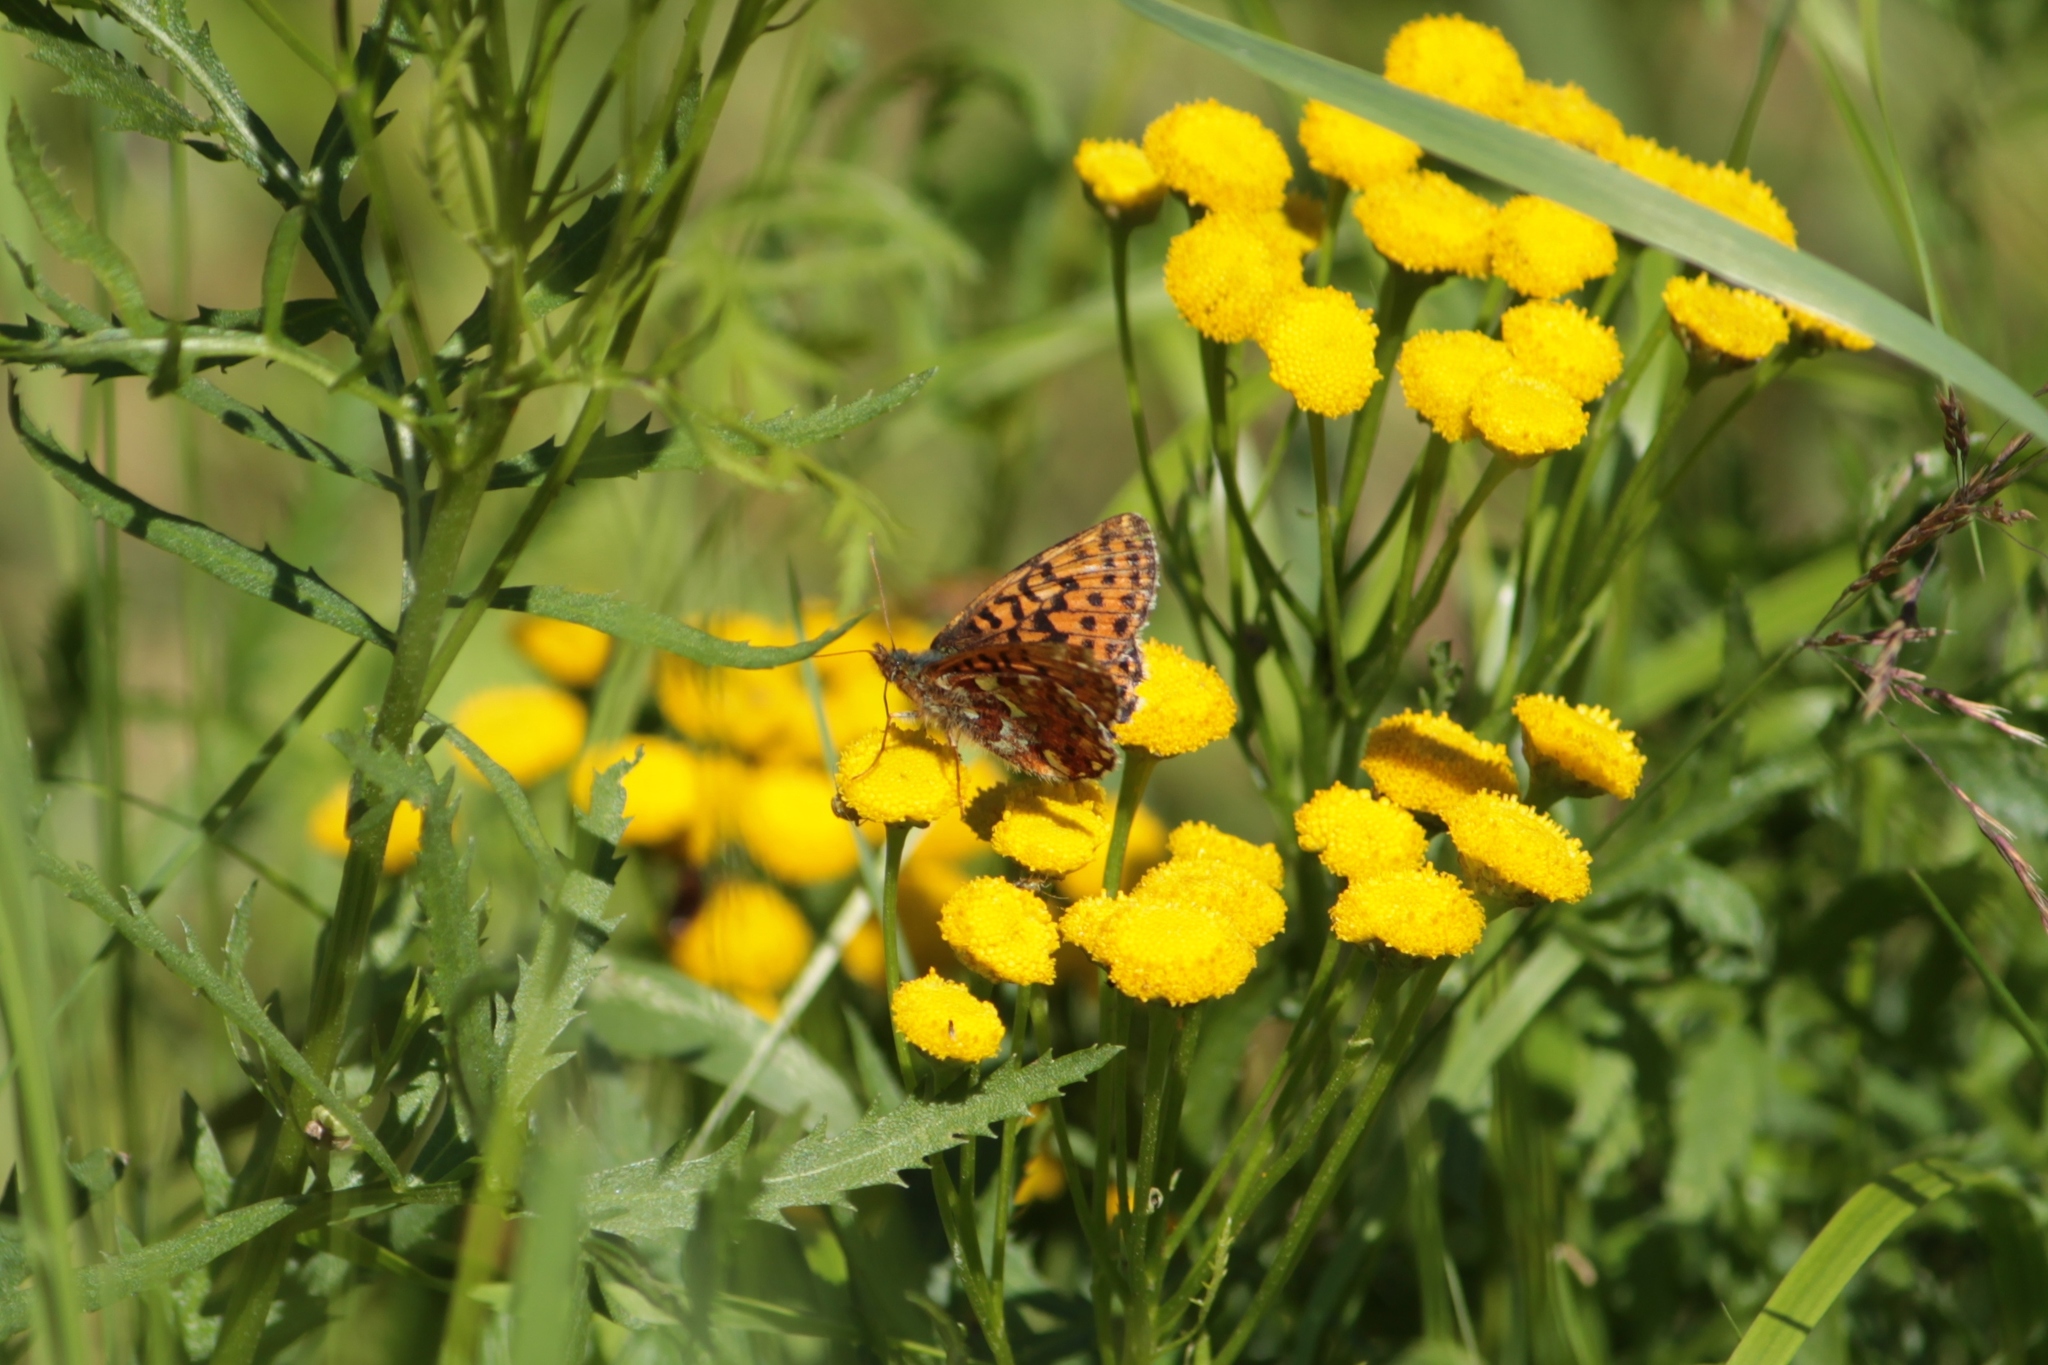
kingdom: Animalia
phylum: Arthropoda
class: Insecta
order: Lepidoptera
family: Nymphalidae
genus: Boloria
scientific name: Boloria aquilonaris
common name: Cranberry fritillary
